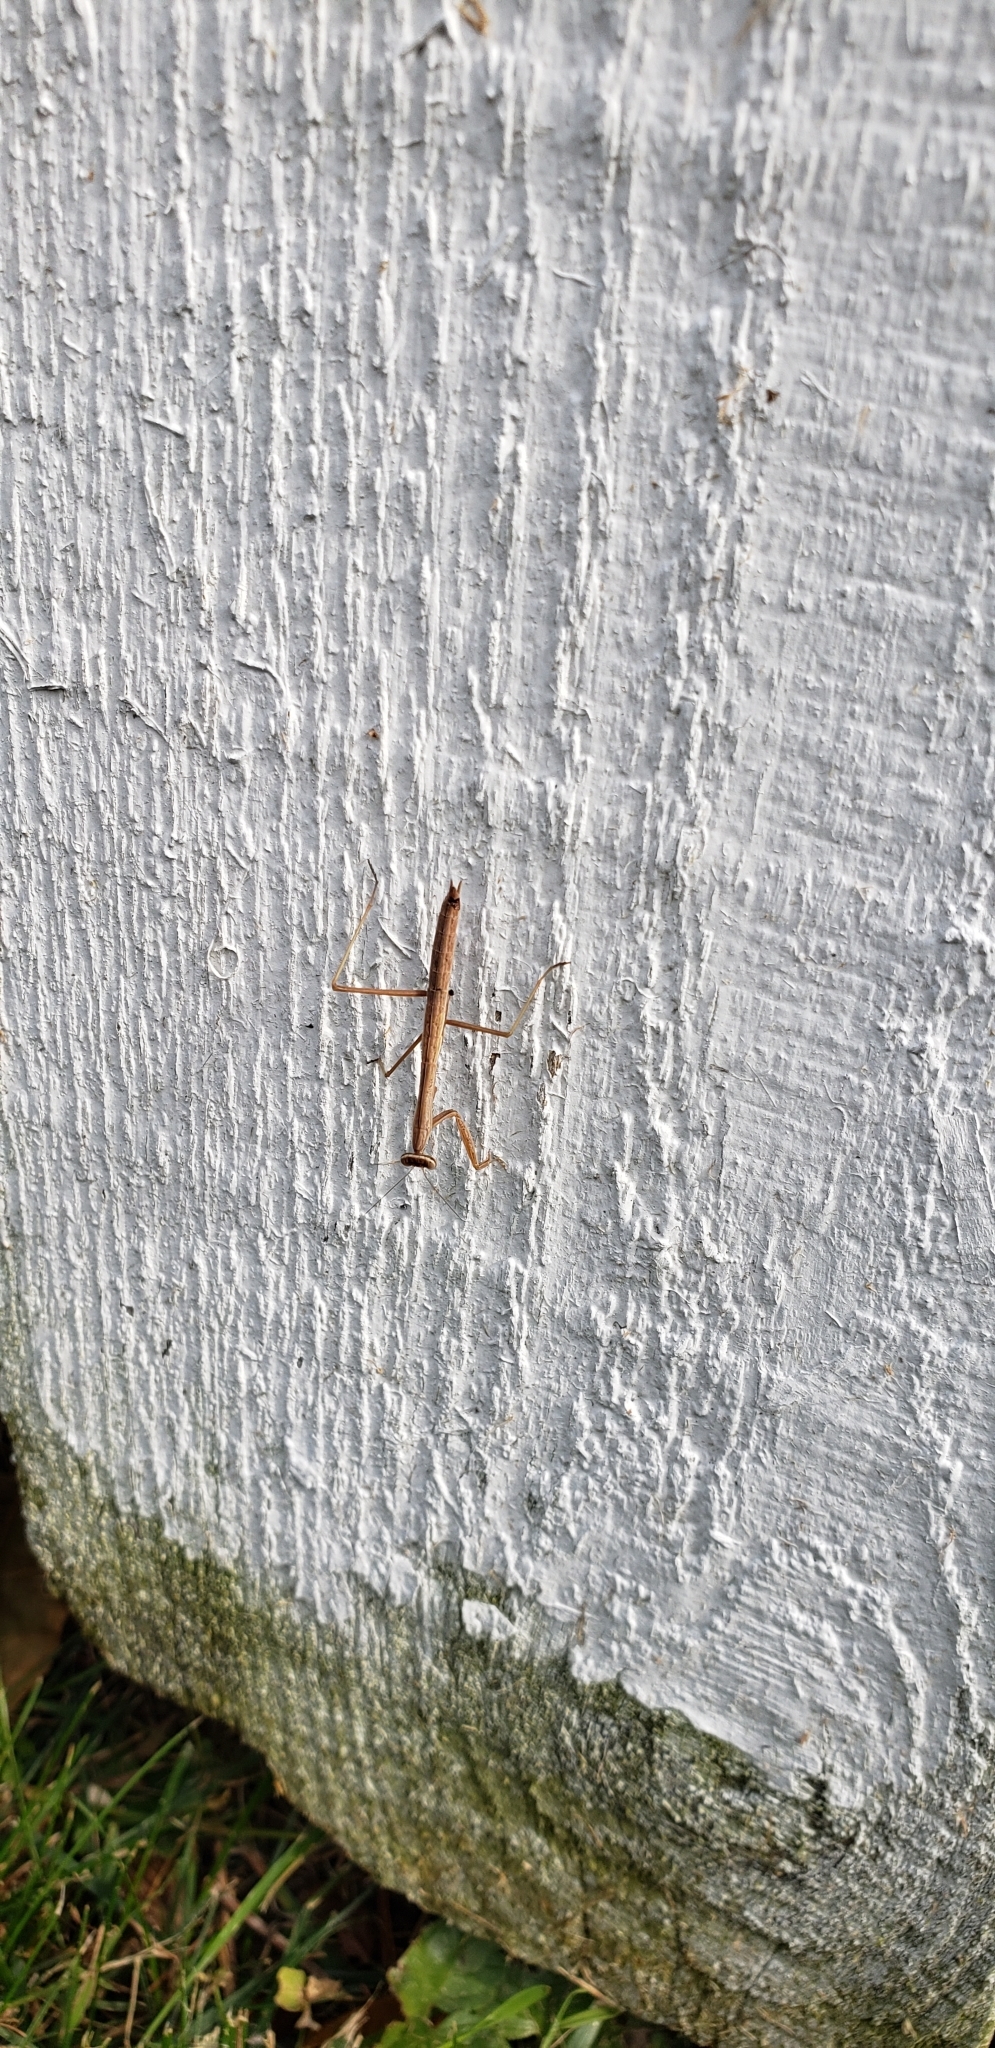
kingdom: Animalia
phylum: Arthropoda
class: Insecta
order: Mantodea
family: Mantidae
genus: Tenodera
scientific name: Tenodera sinensis
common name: Chinese mantis
